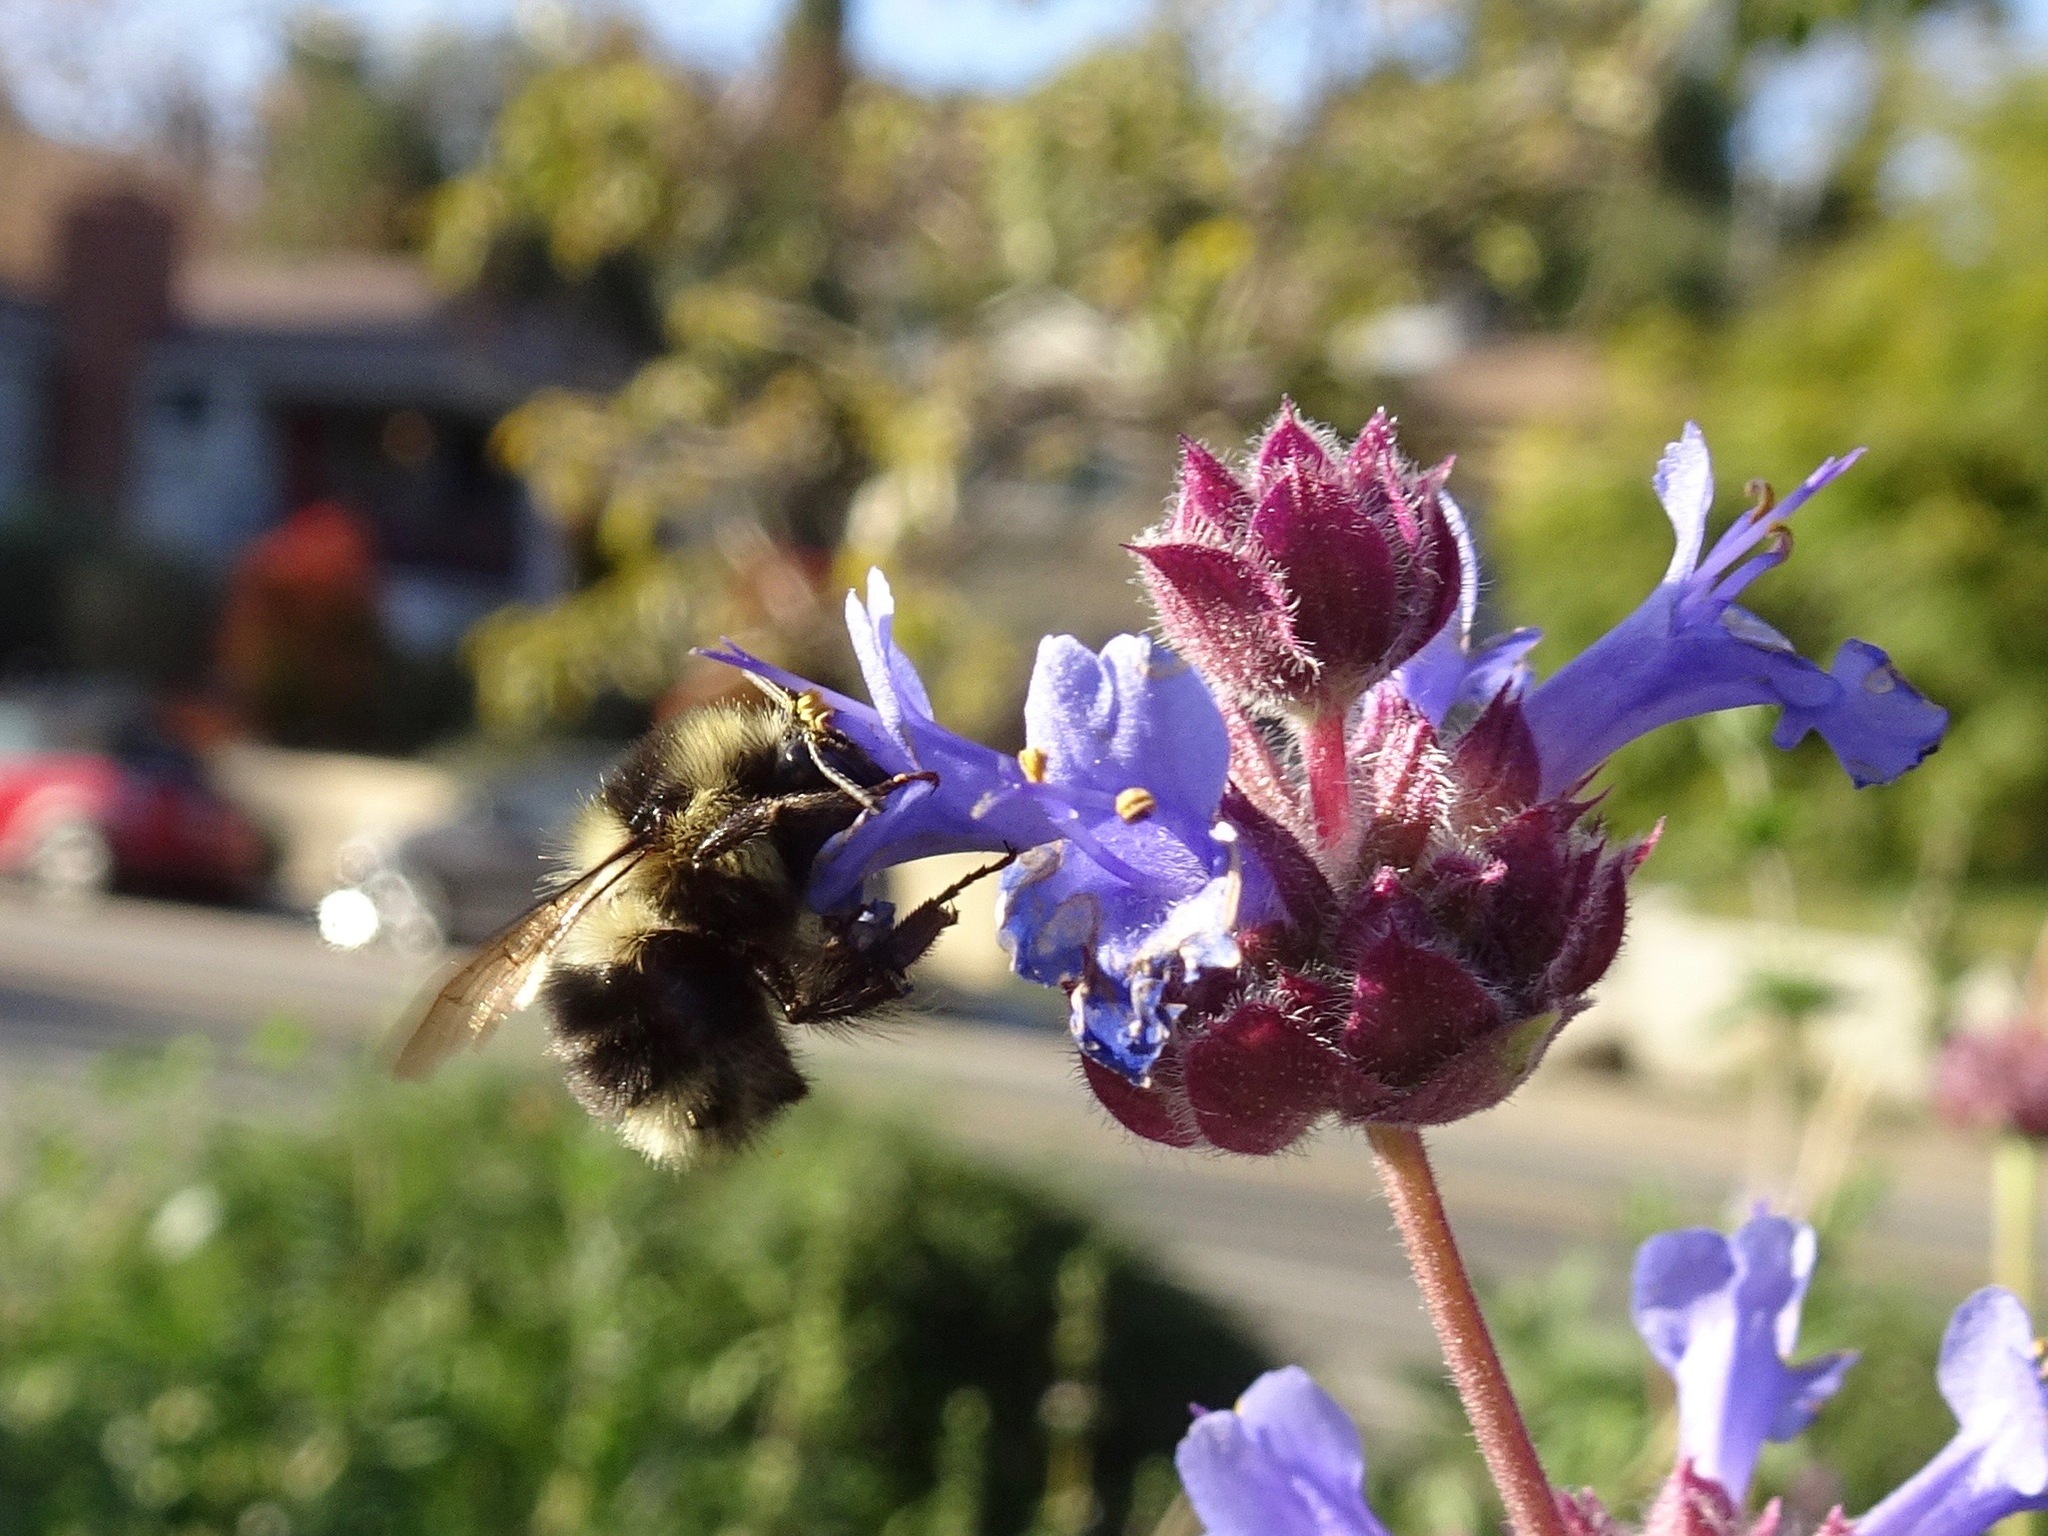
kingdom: Animalia
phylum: Arthropoda
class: Insecta
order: Hymenoptera
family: Apidae
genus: Bombus
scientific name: Bombus melanopygus
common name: Black tail bumble bee
